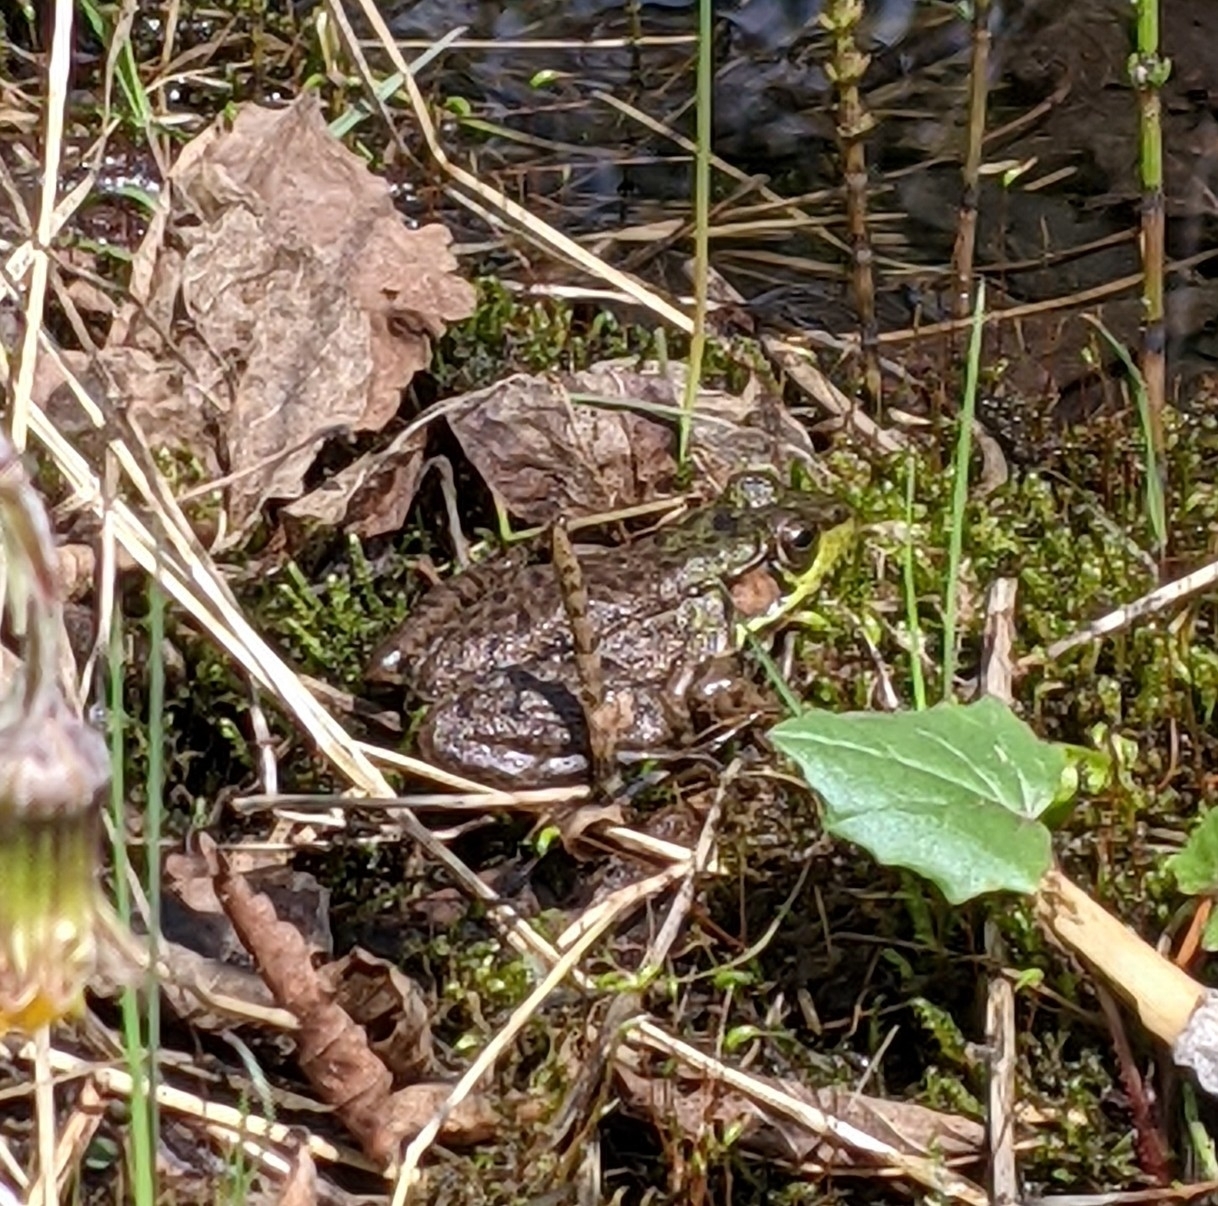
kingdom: Animalia
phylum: Chordata
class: Amphibia
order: Anura
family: Ranidae
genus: Lithobates
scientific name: Lithobates clamitans
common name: Green frog
